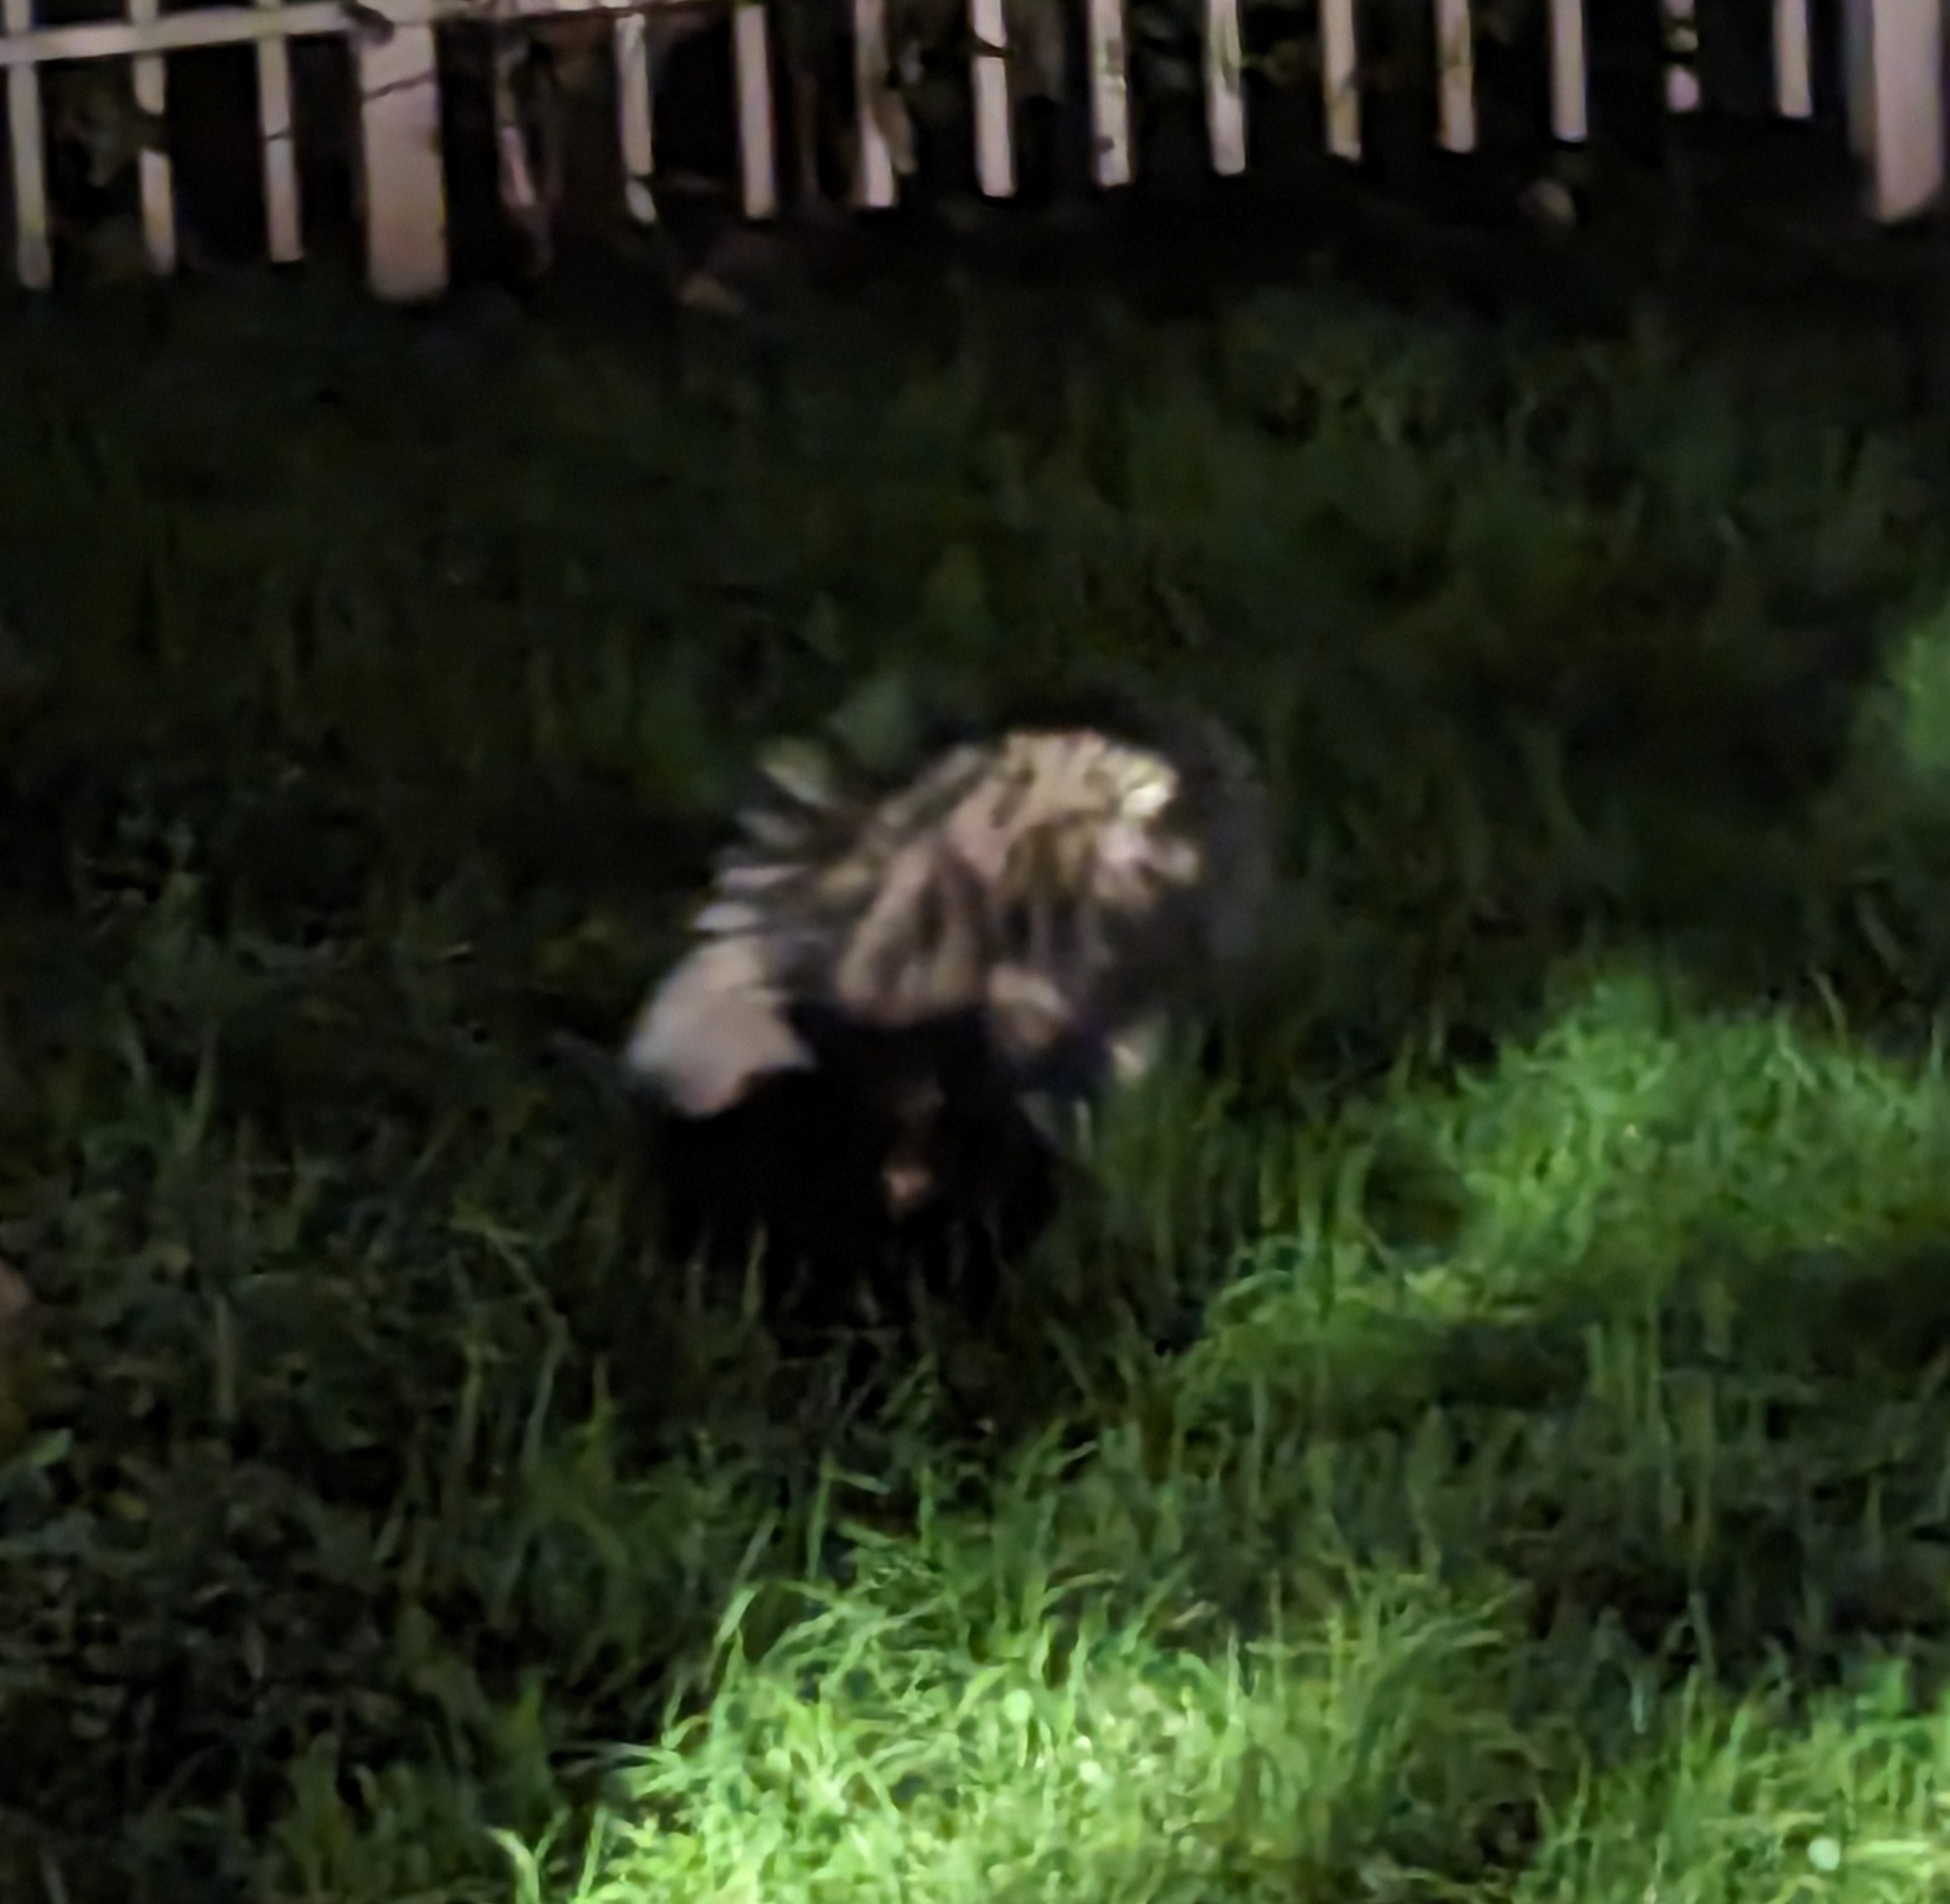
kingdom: Animalia
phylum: Chordata
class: Mammalia
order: Carnivora
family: Mephitidae
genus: Mephitis
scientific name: Mephitis mephitis
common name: Striped skunk
